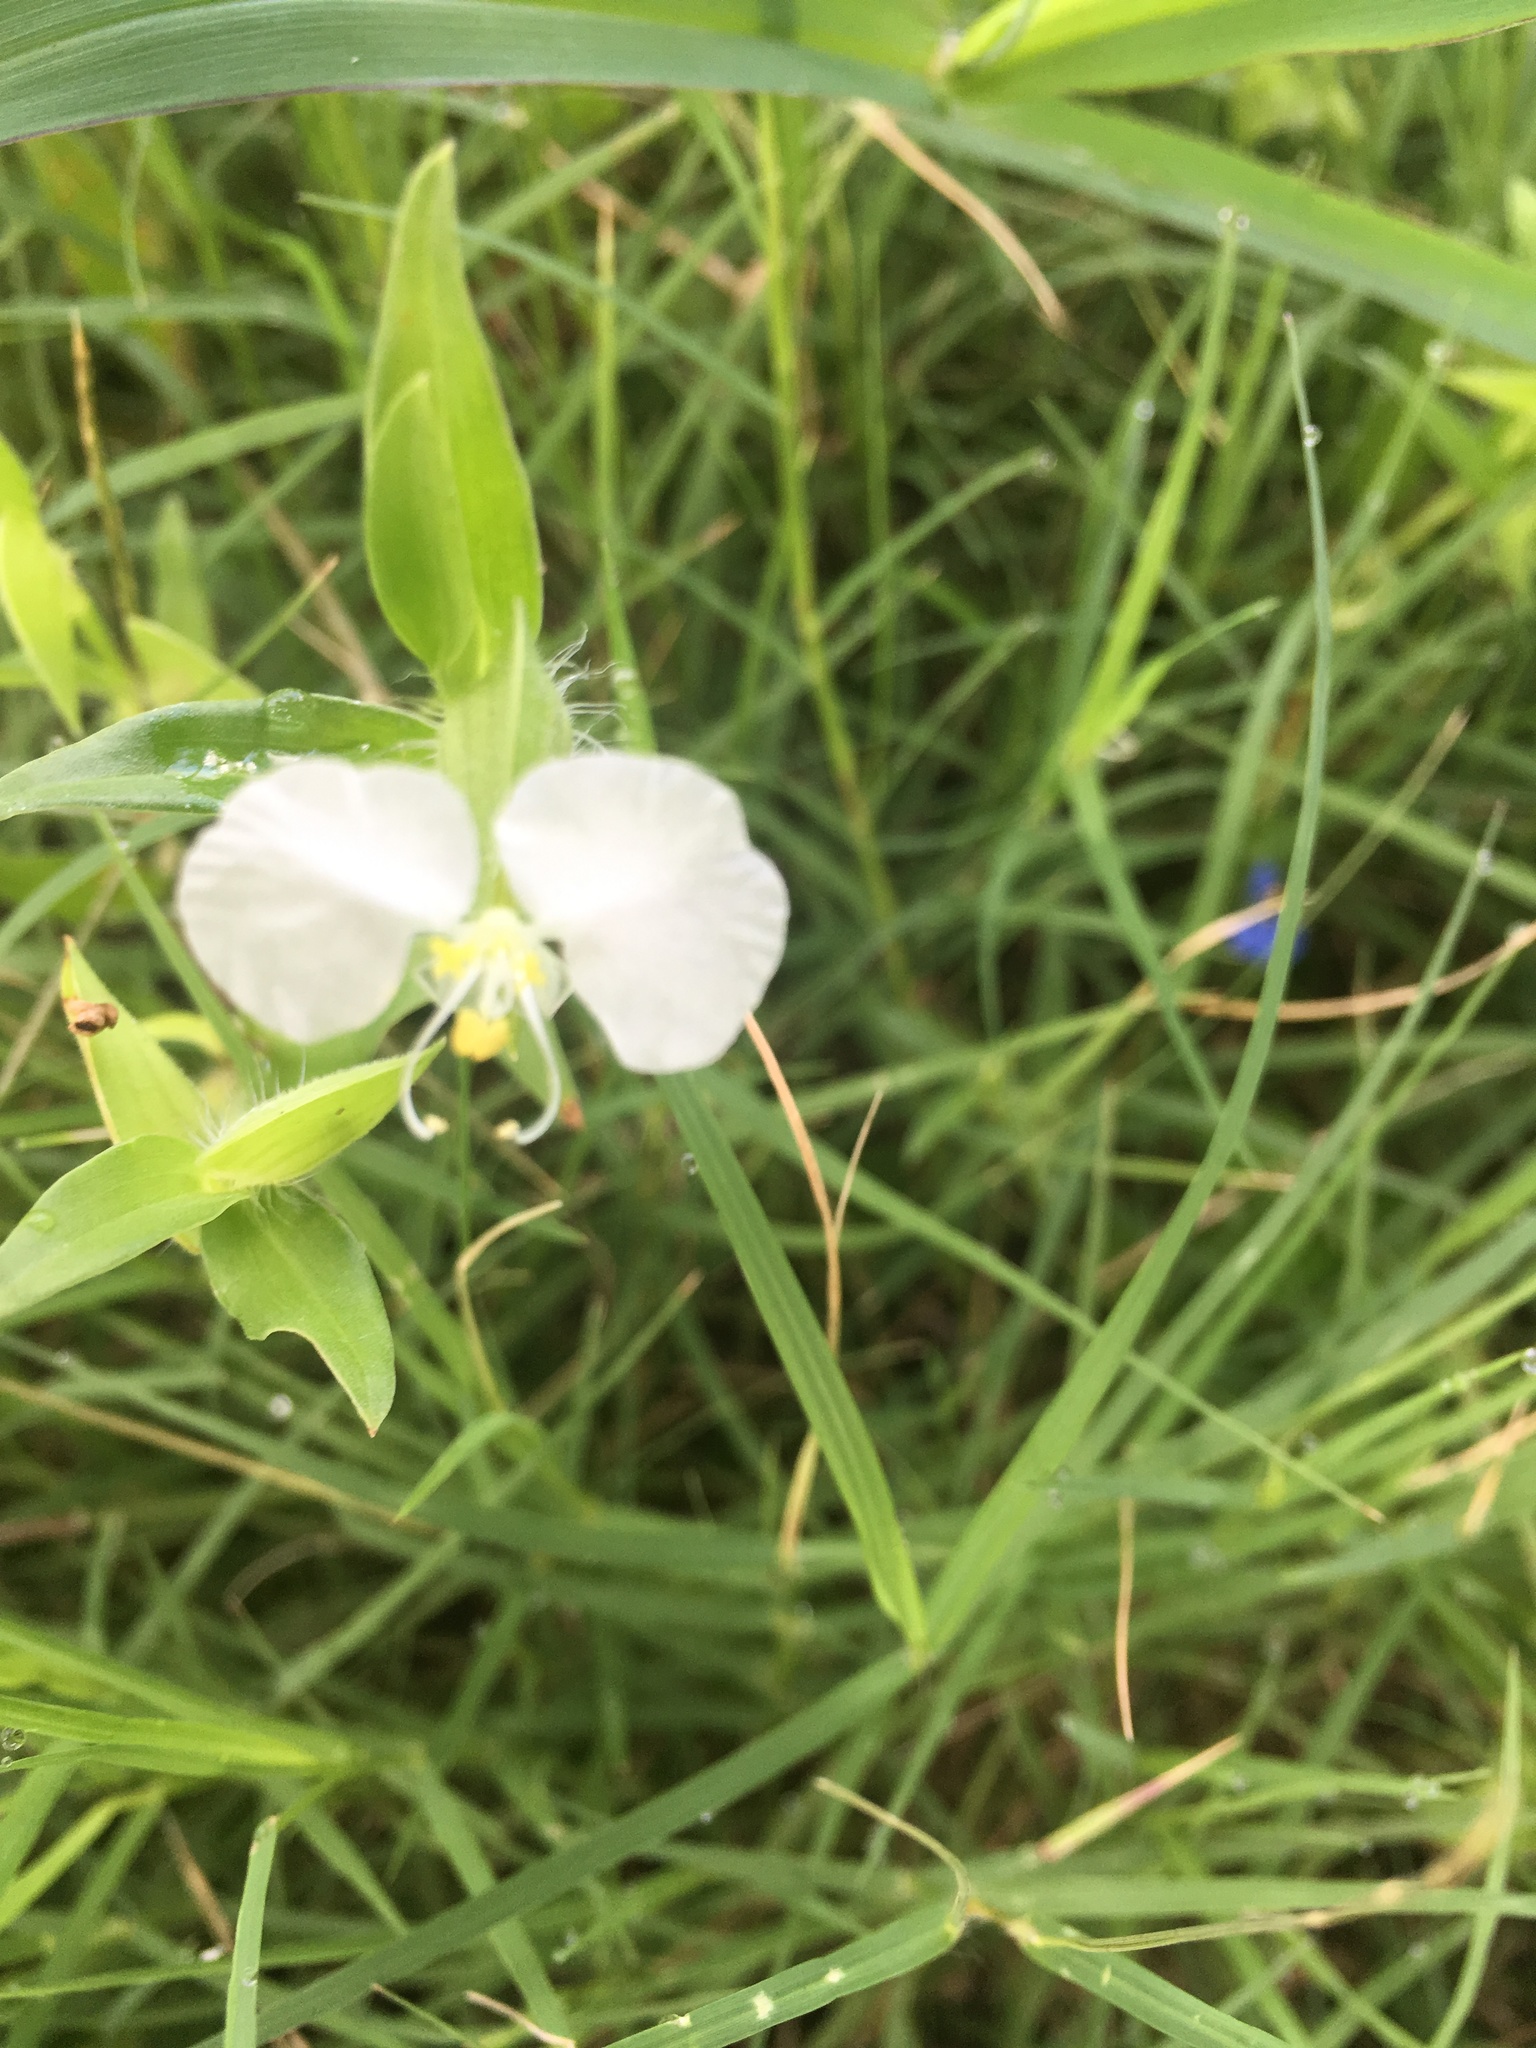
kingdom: Plantae
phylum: Tracheophyta
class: Liliopsida
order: Commelinales
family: Commelinaceae
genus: Commelina
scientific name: Commelina erecta
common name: Blousel blommetjie
